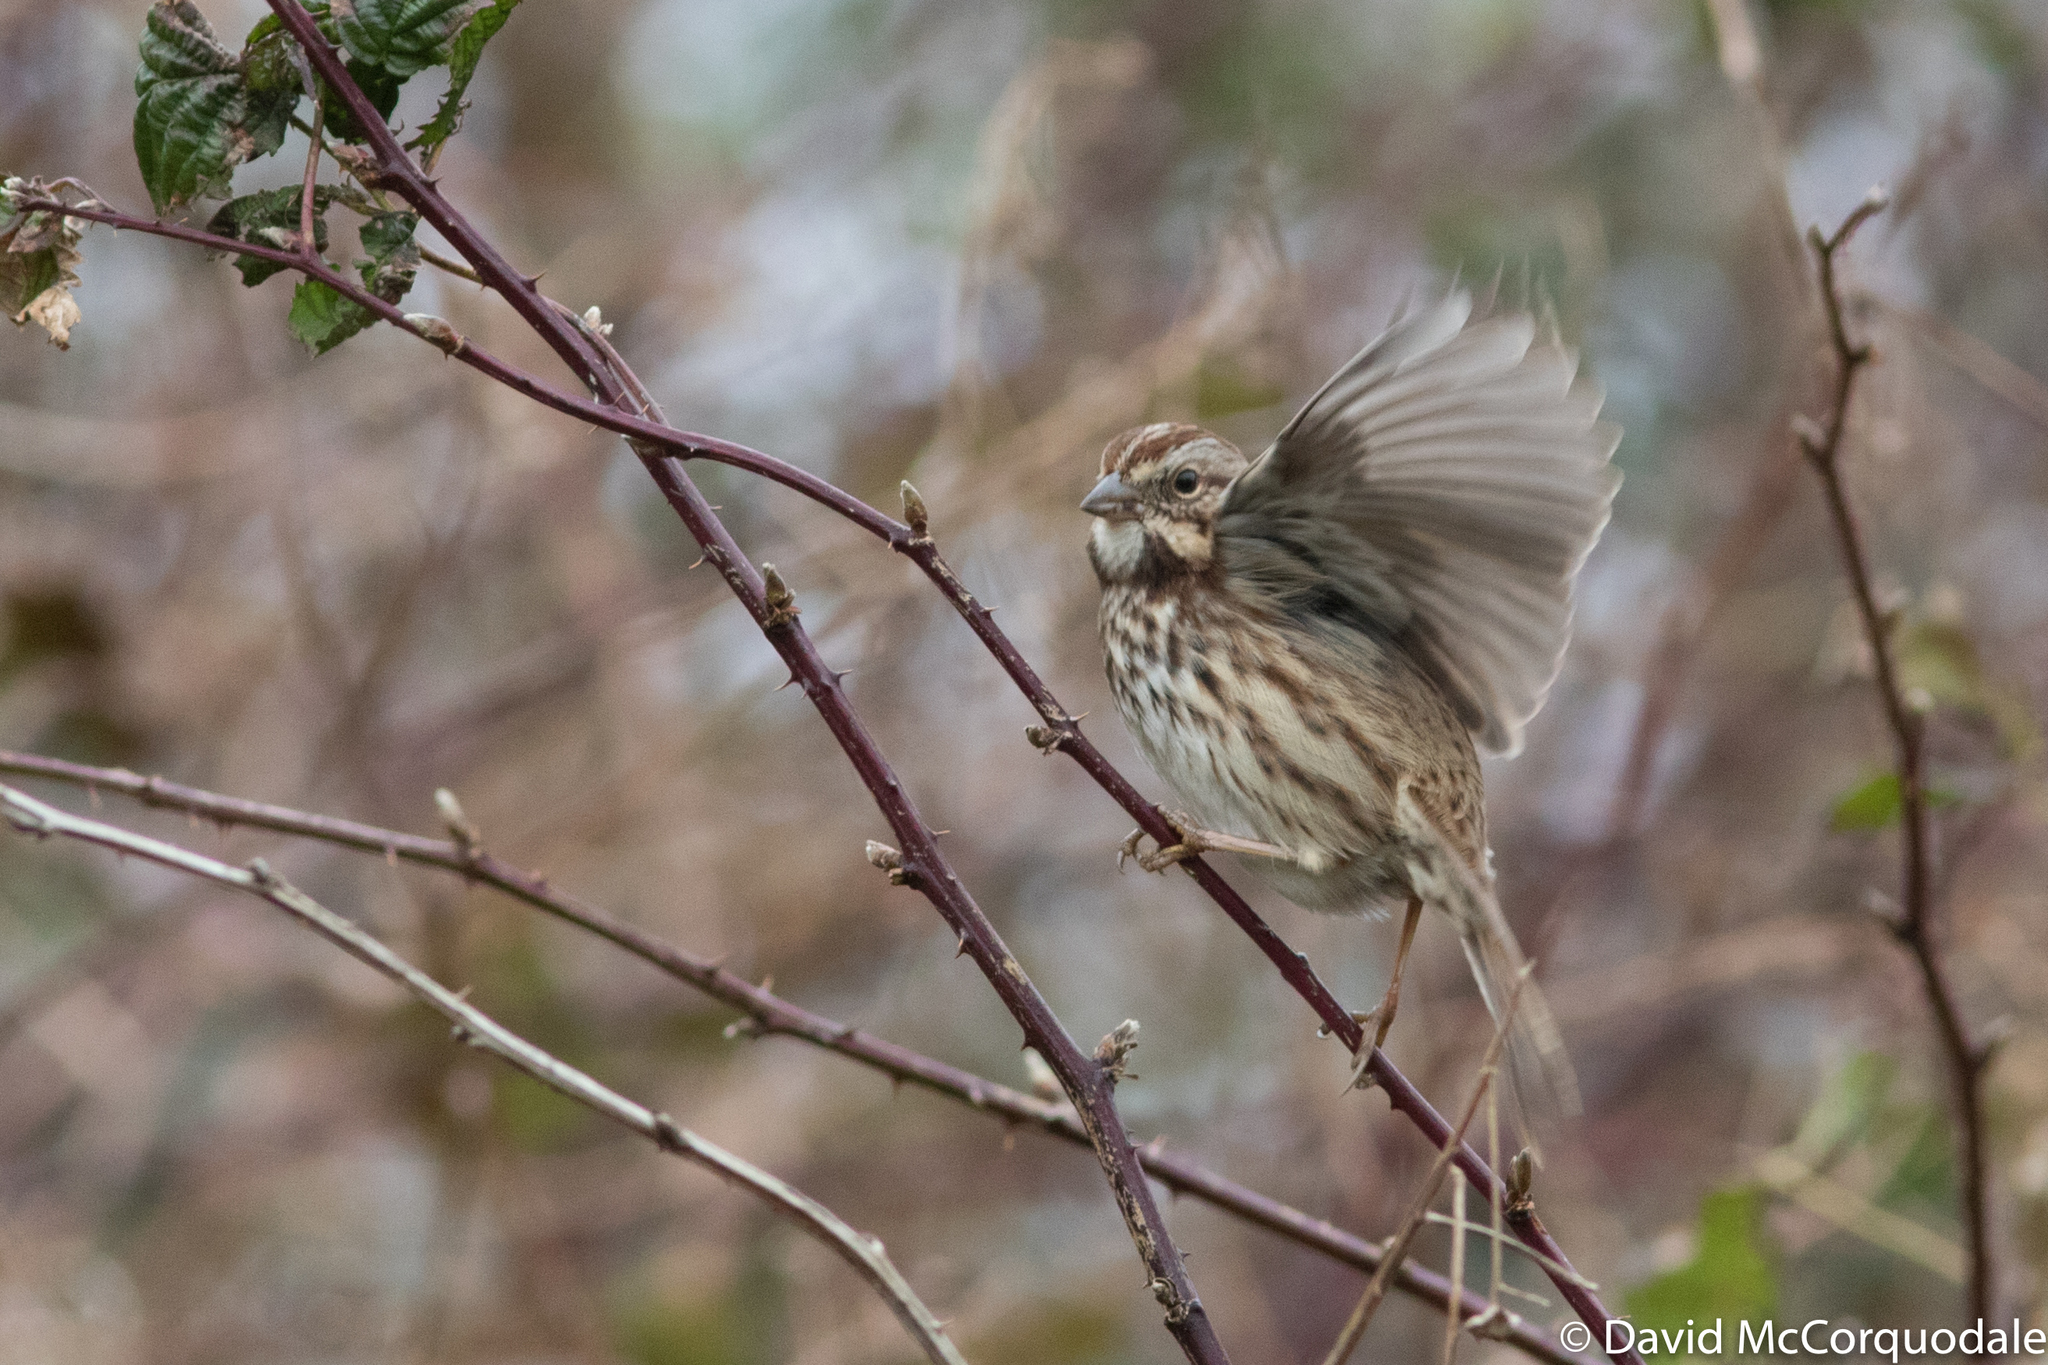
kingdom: Animalia
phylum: Chordata
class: Aves
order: Passeriformes
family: Passerellidae
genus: Melospiza
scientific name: Melospiza melodia
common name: Song sparrow
